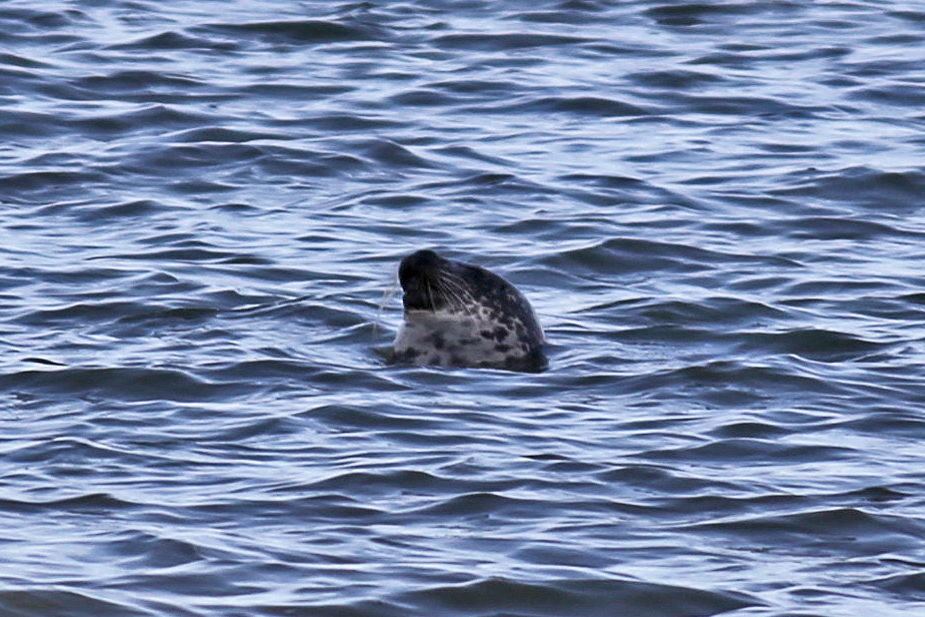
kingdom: Animalia
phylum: Chordata
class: Mammalia
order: Carnivora
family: Phocidae
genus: Phoca
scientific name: Phoca vitulina
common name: Harbor seal
